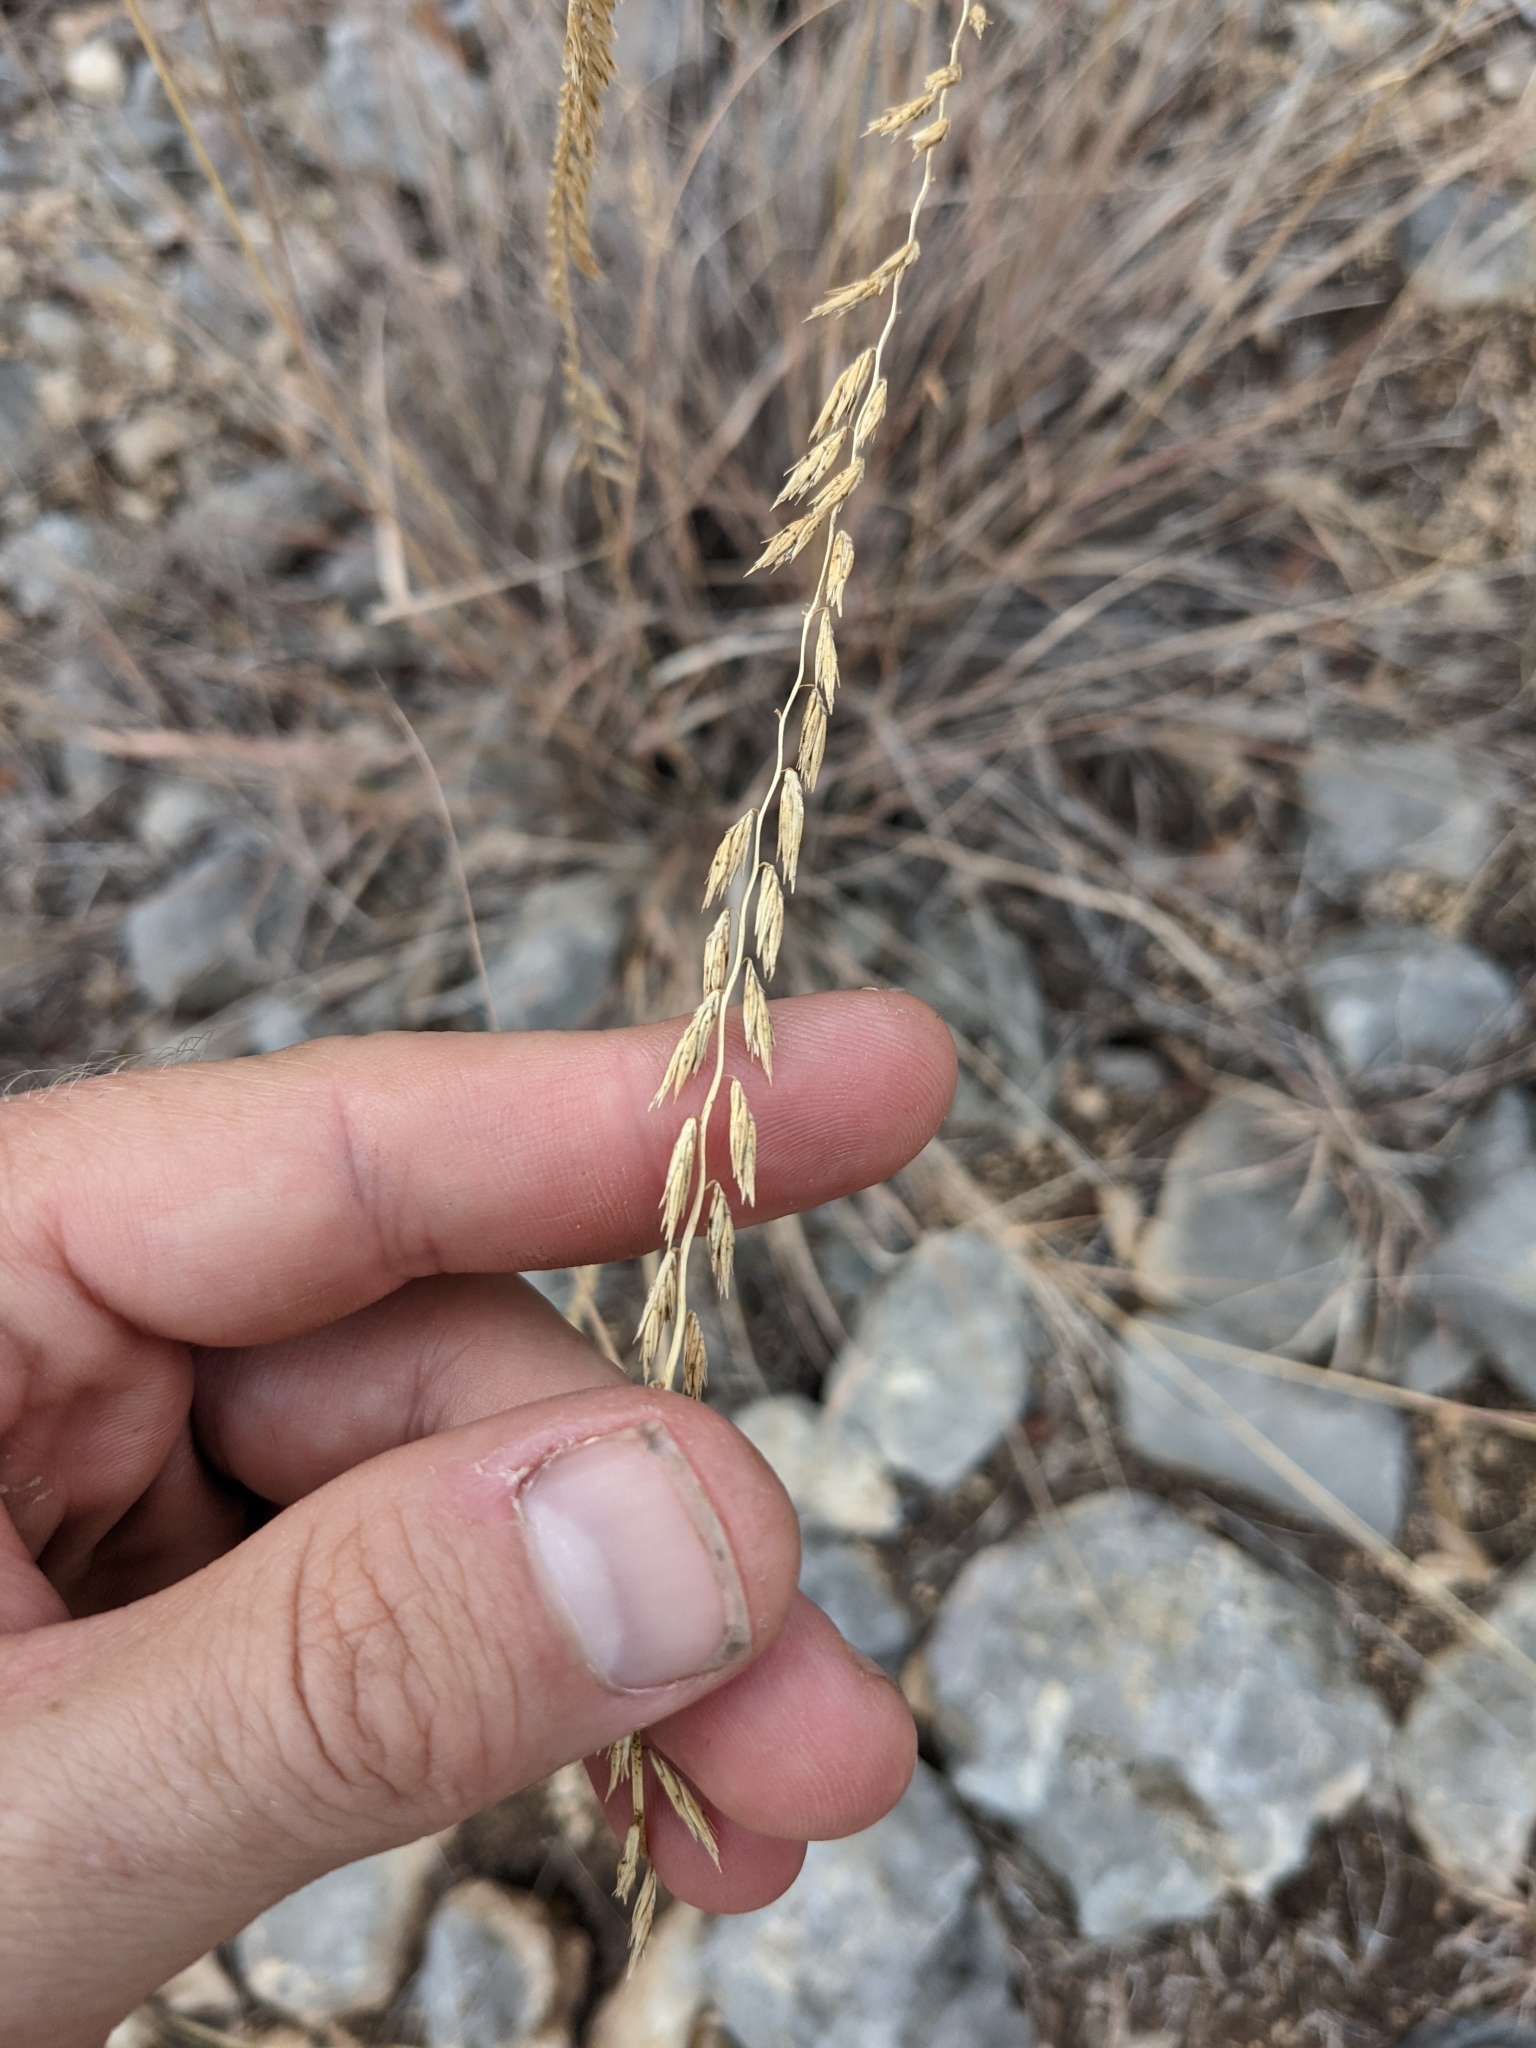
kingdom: Plantae
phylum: Tracheophyta
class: Liliopsida
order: Poales
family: Poaceae
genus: Bouteloua
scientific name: Bouteloua curtipendula
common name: Side-oats grama
